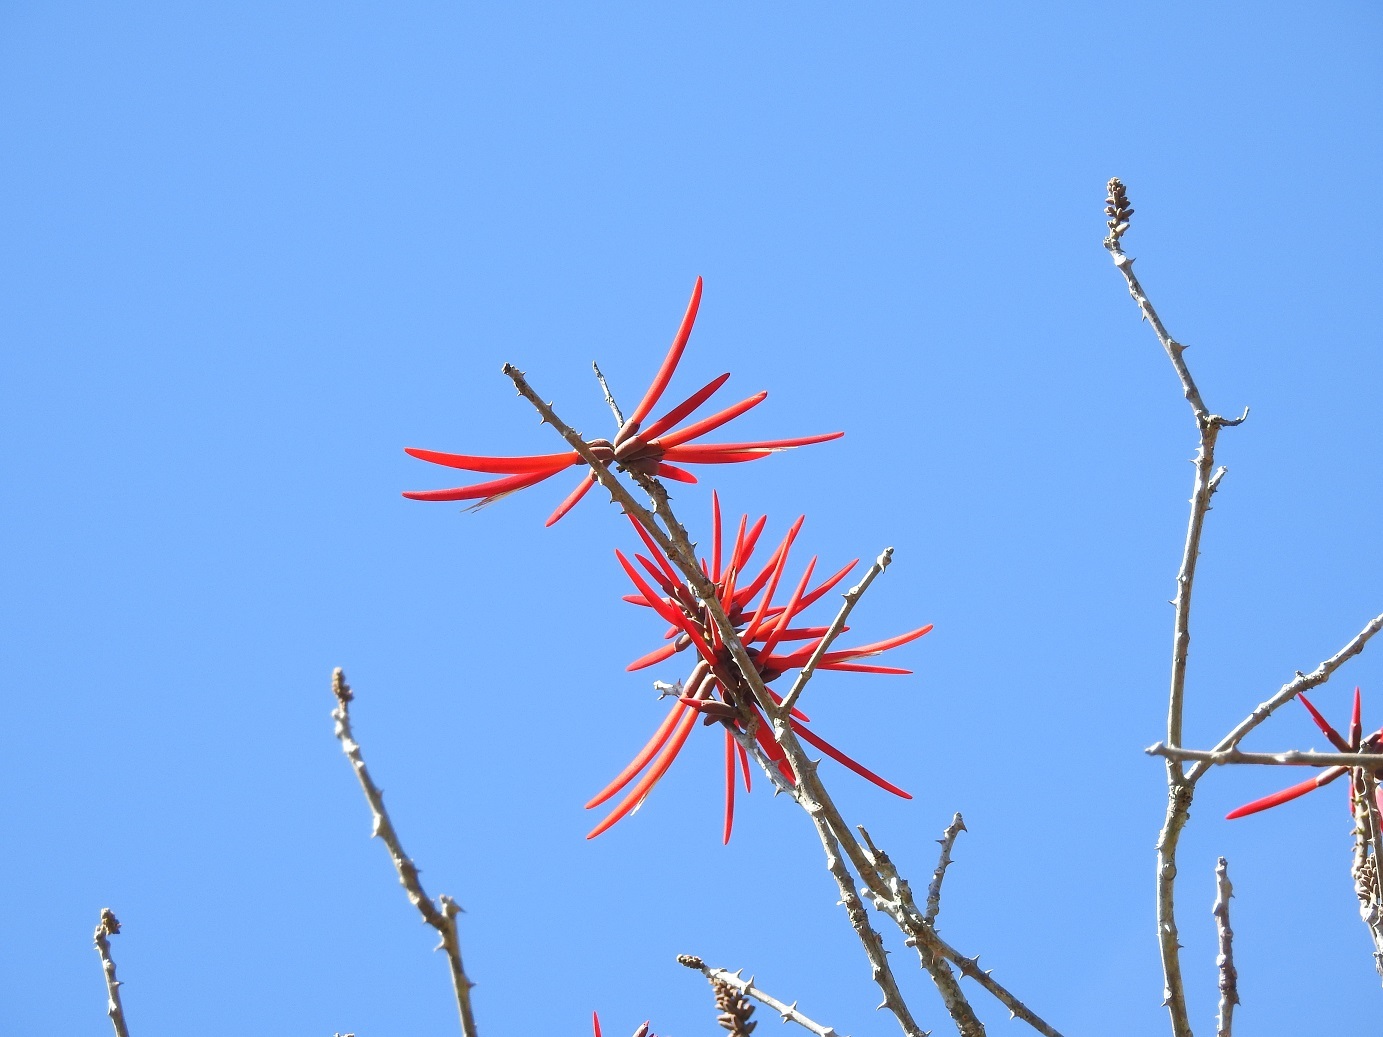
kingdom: Plantae
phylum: Tracheophyta
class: Magnoliopsida
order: Fabales
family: Fabaceae
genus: Erythrina
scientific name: Erythrina goldmanii
